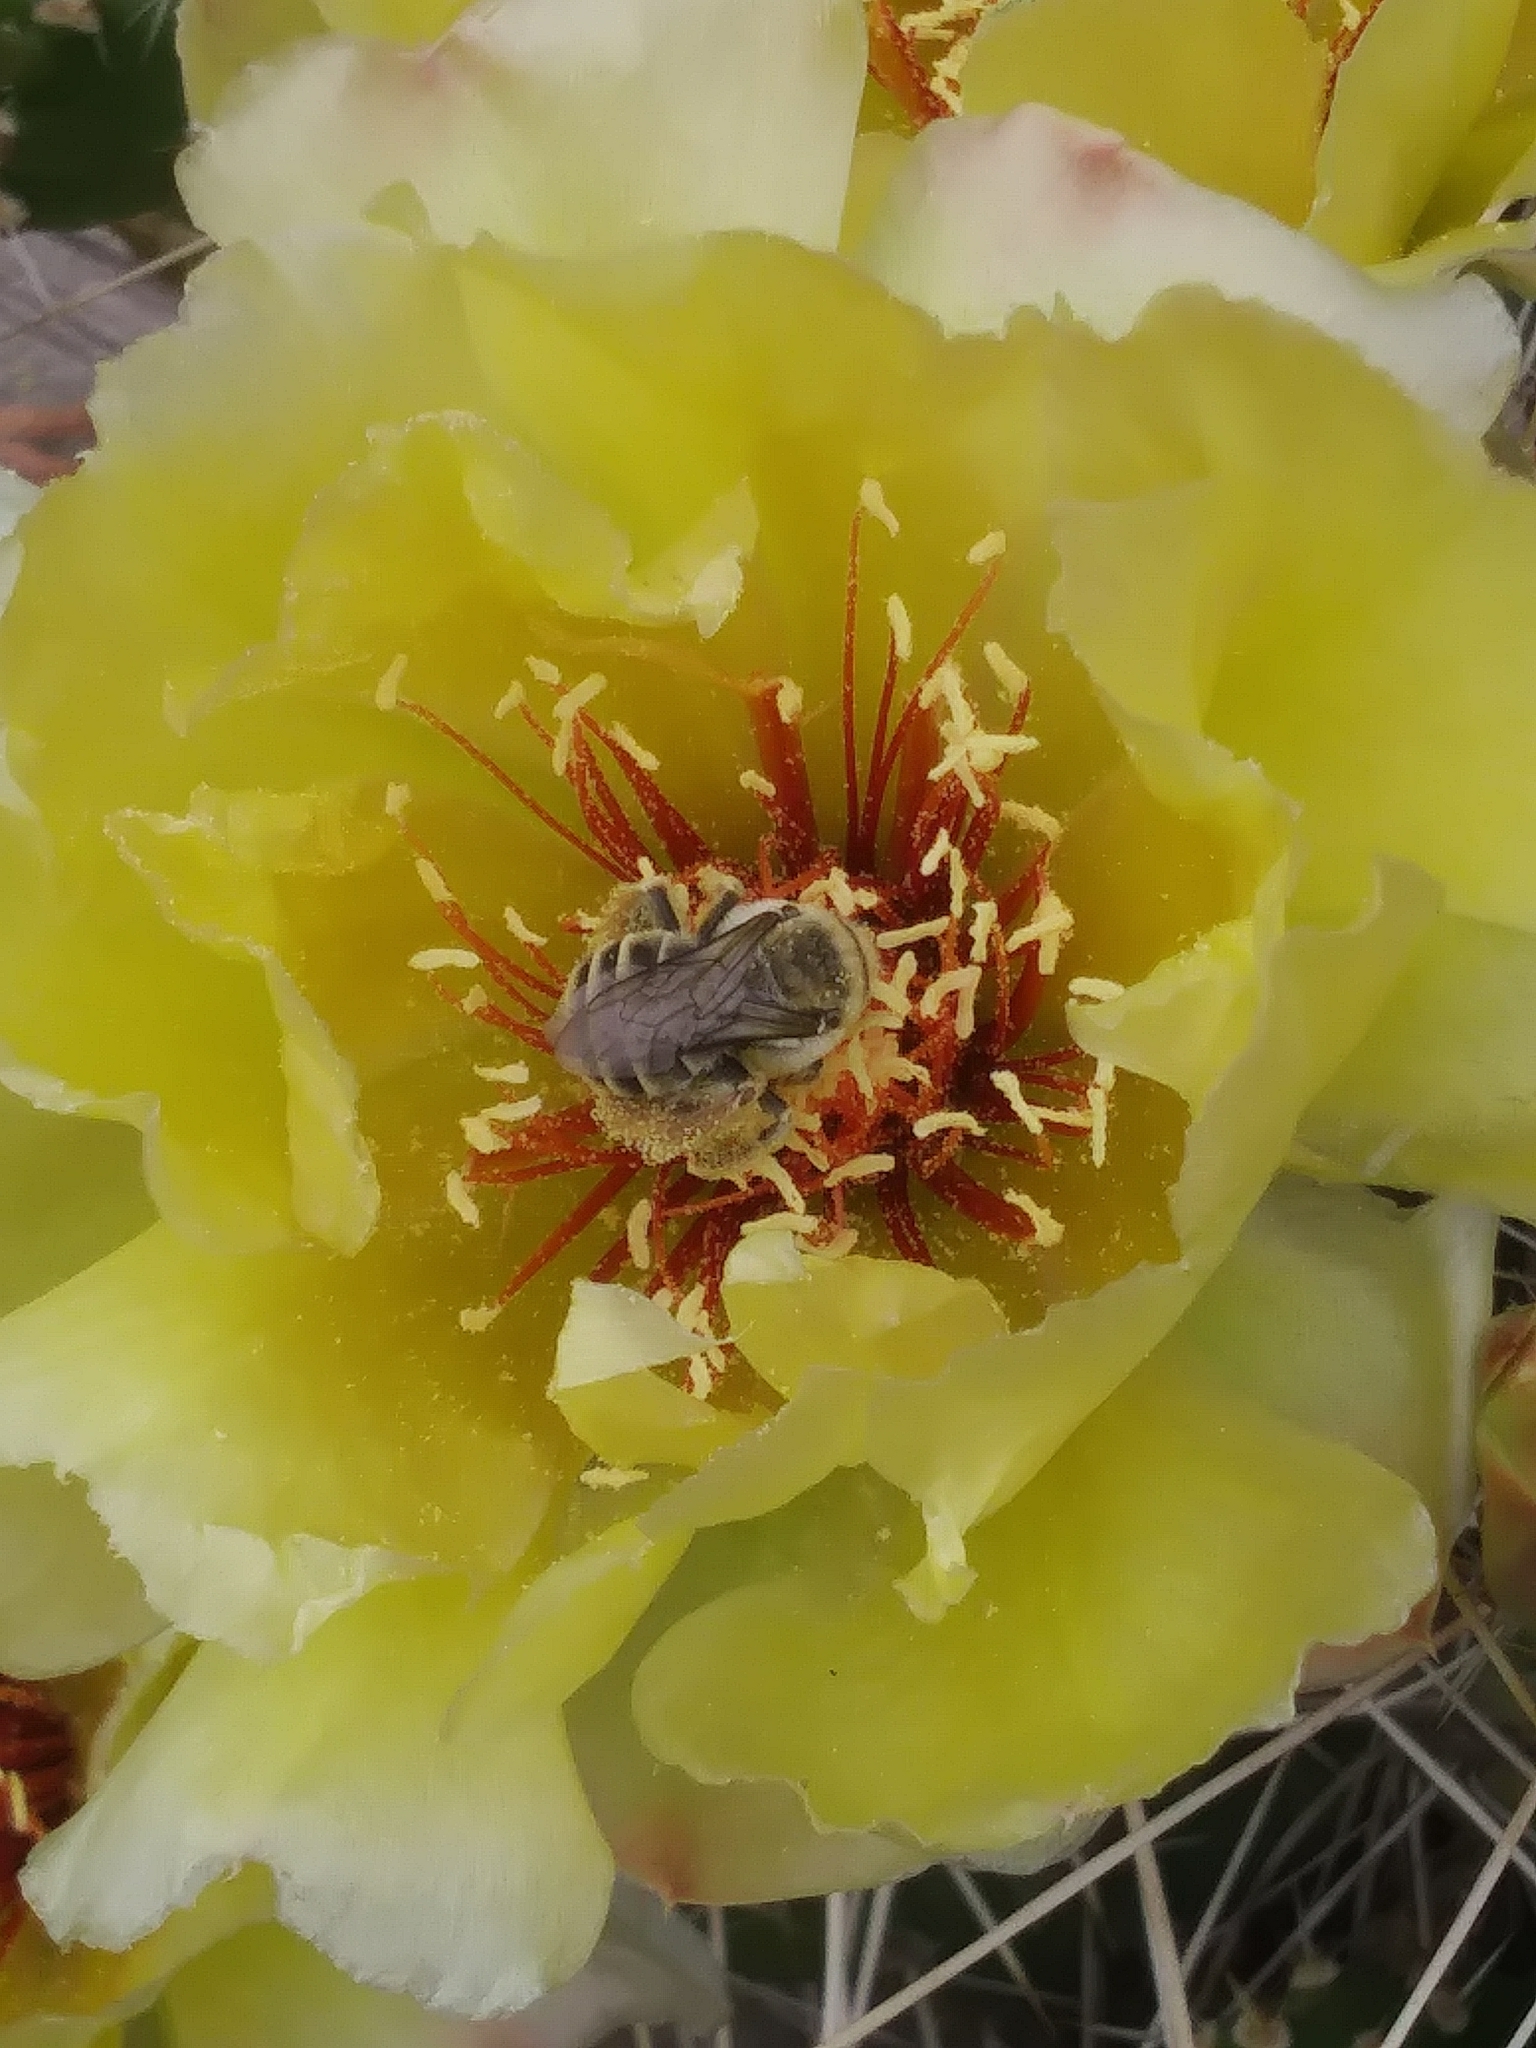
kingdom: Animalia
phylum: Arthropoda
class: Insecta
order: Hymenoptera
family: Apidae
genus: Diadasia
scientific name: Diadasia australis
